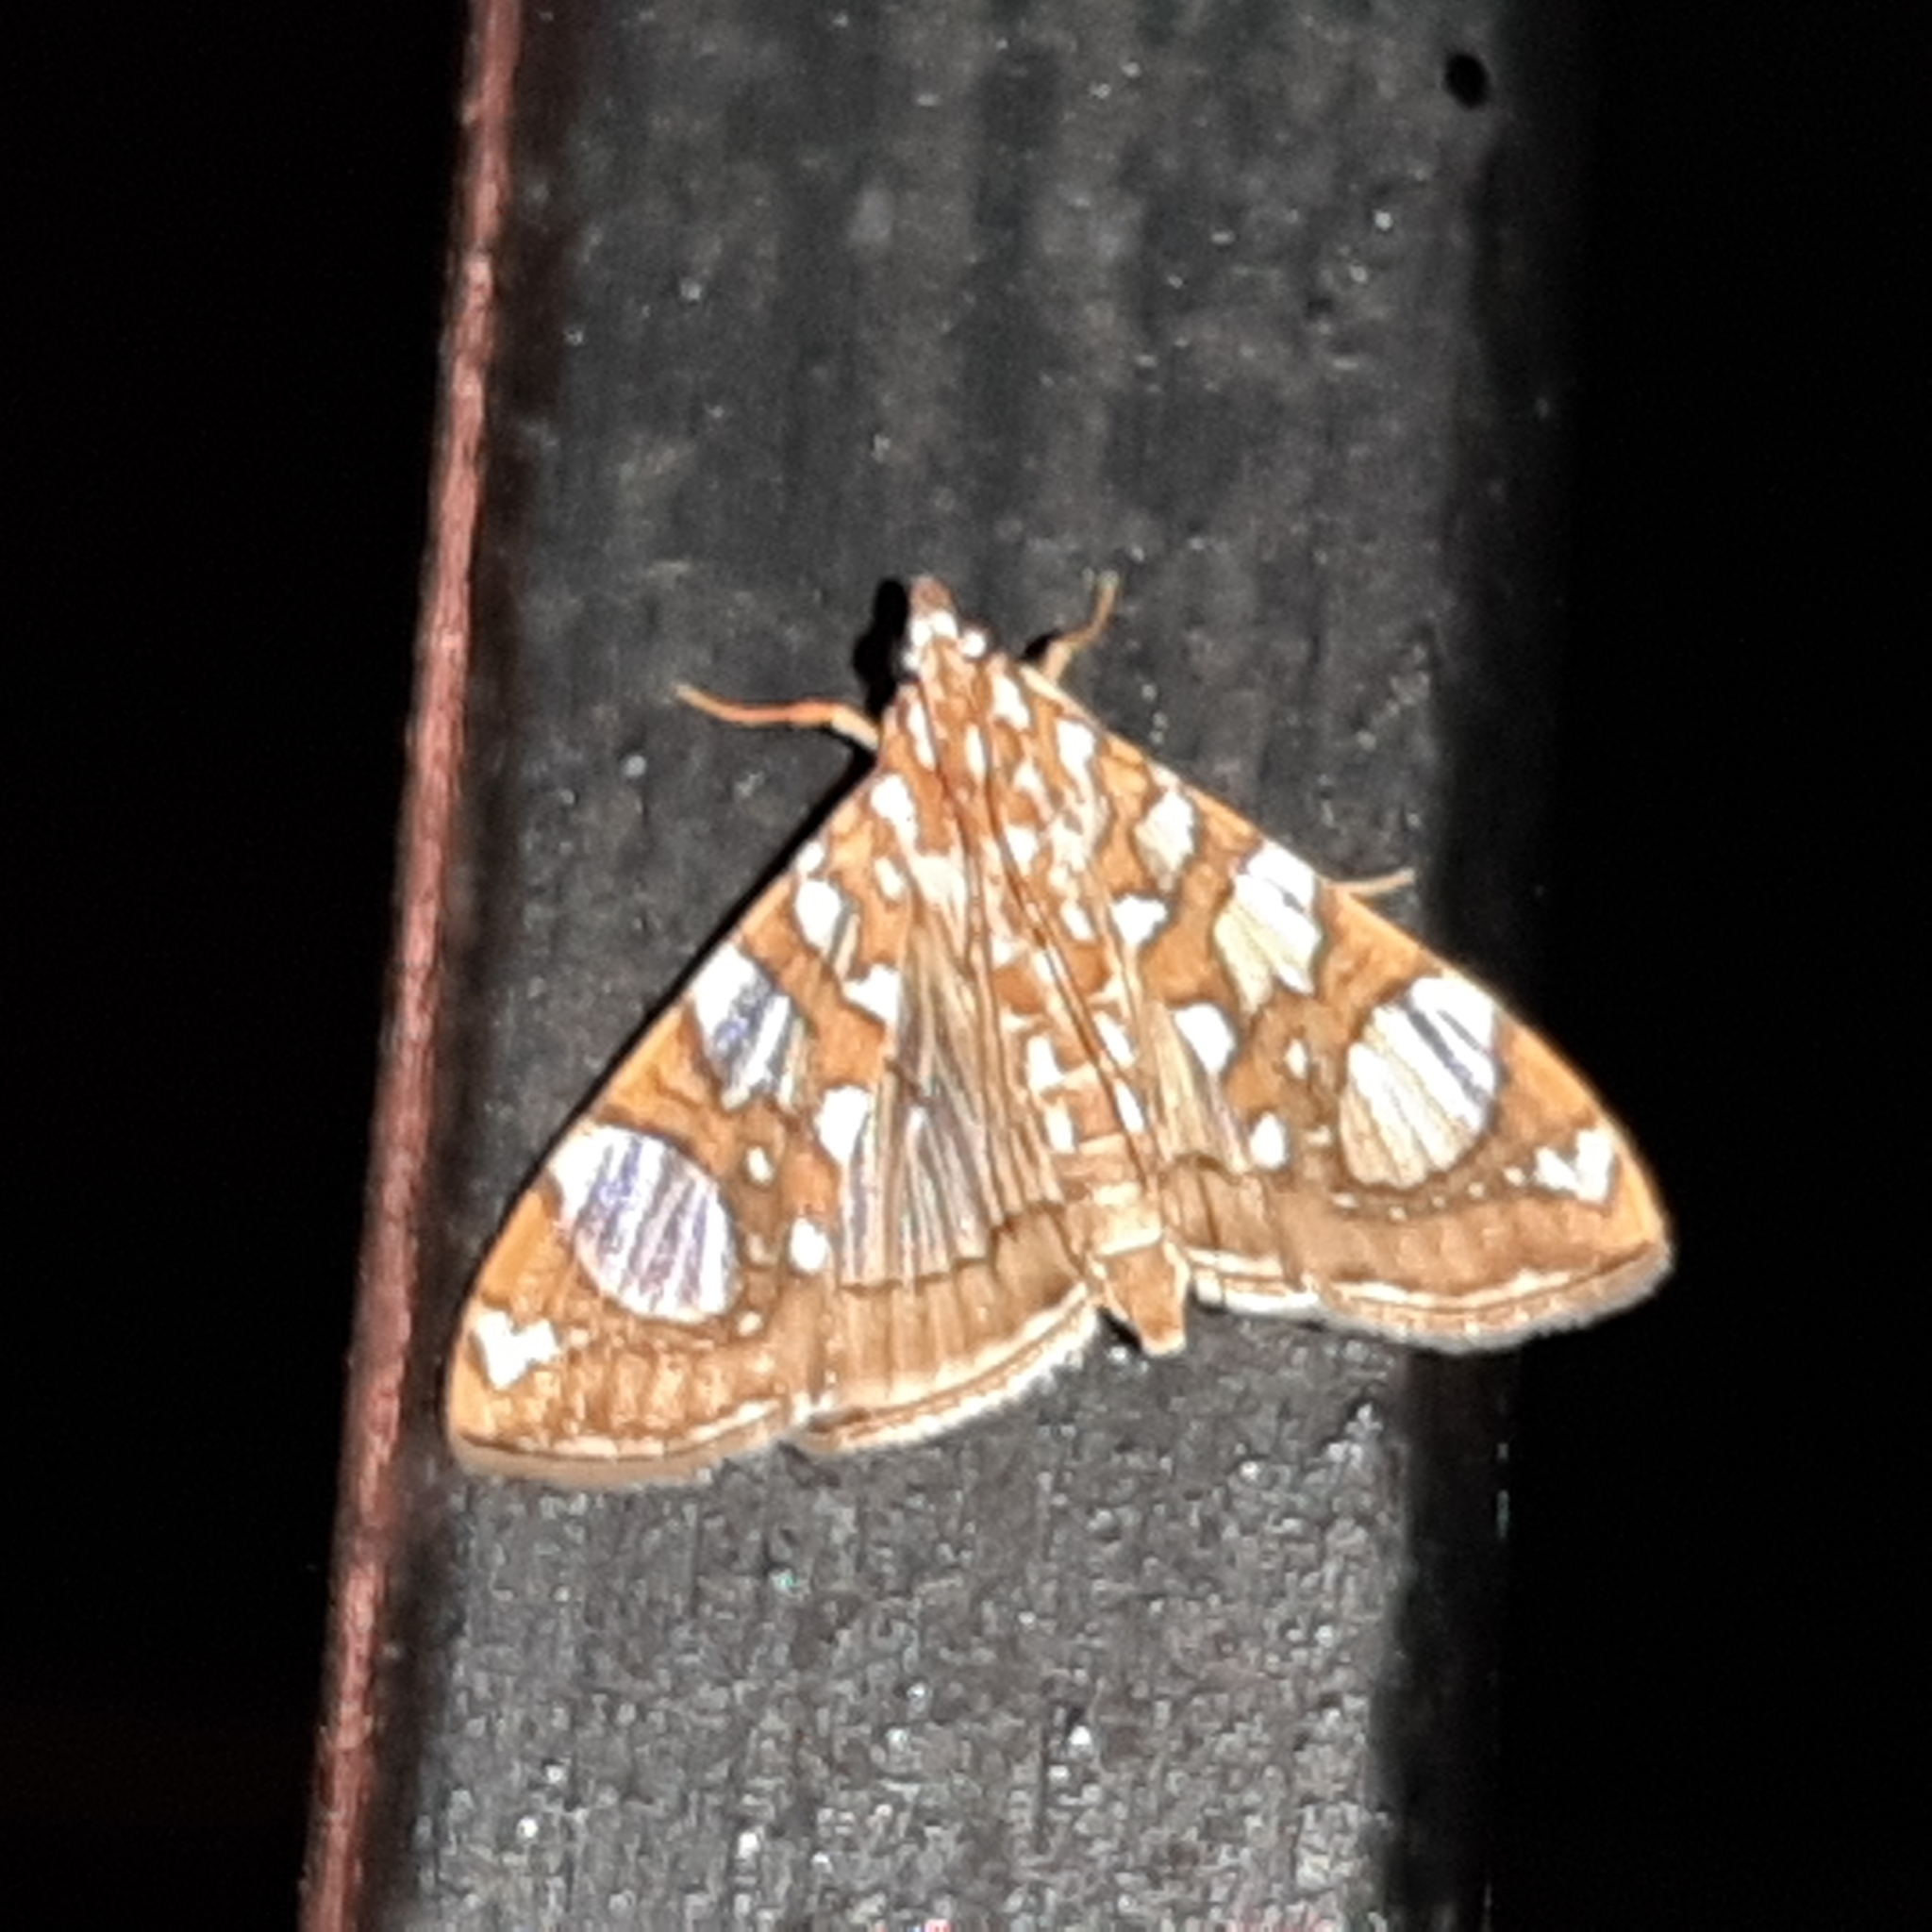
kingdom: Animalia
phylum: Arthropoda
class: Insecta
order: Lepidoptera
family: Crambidae
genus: Glyphodes
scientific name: Glyphodes sibillalis
